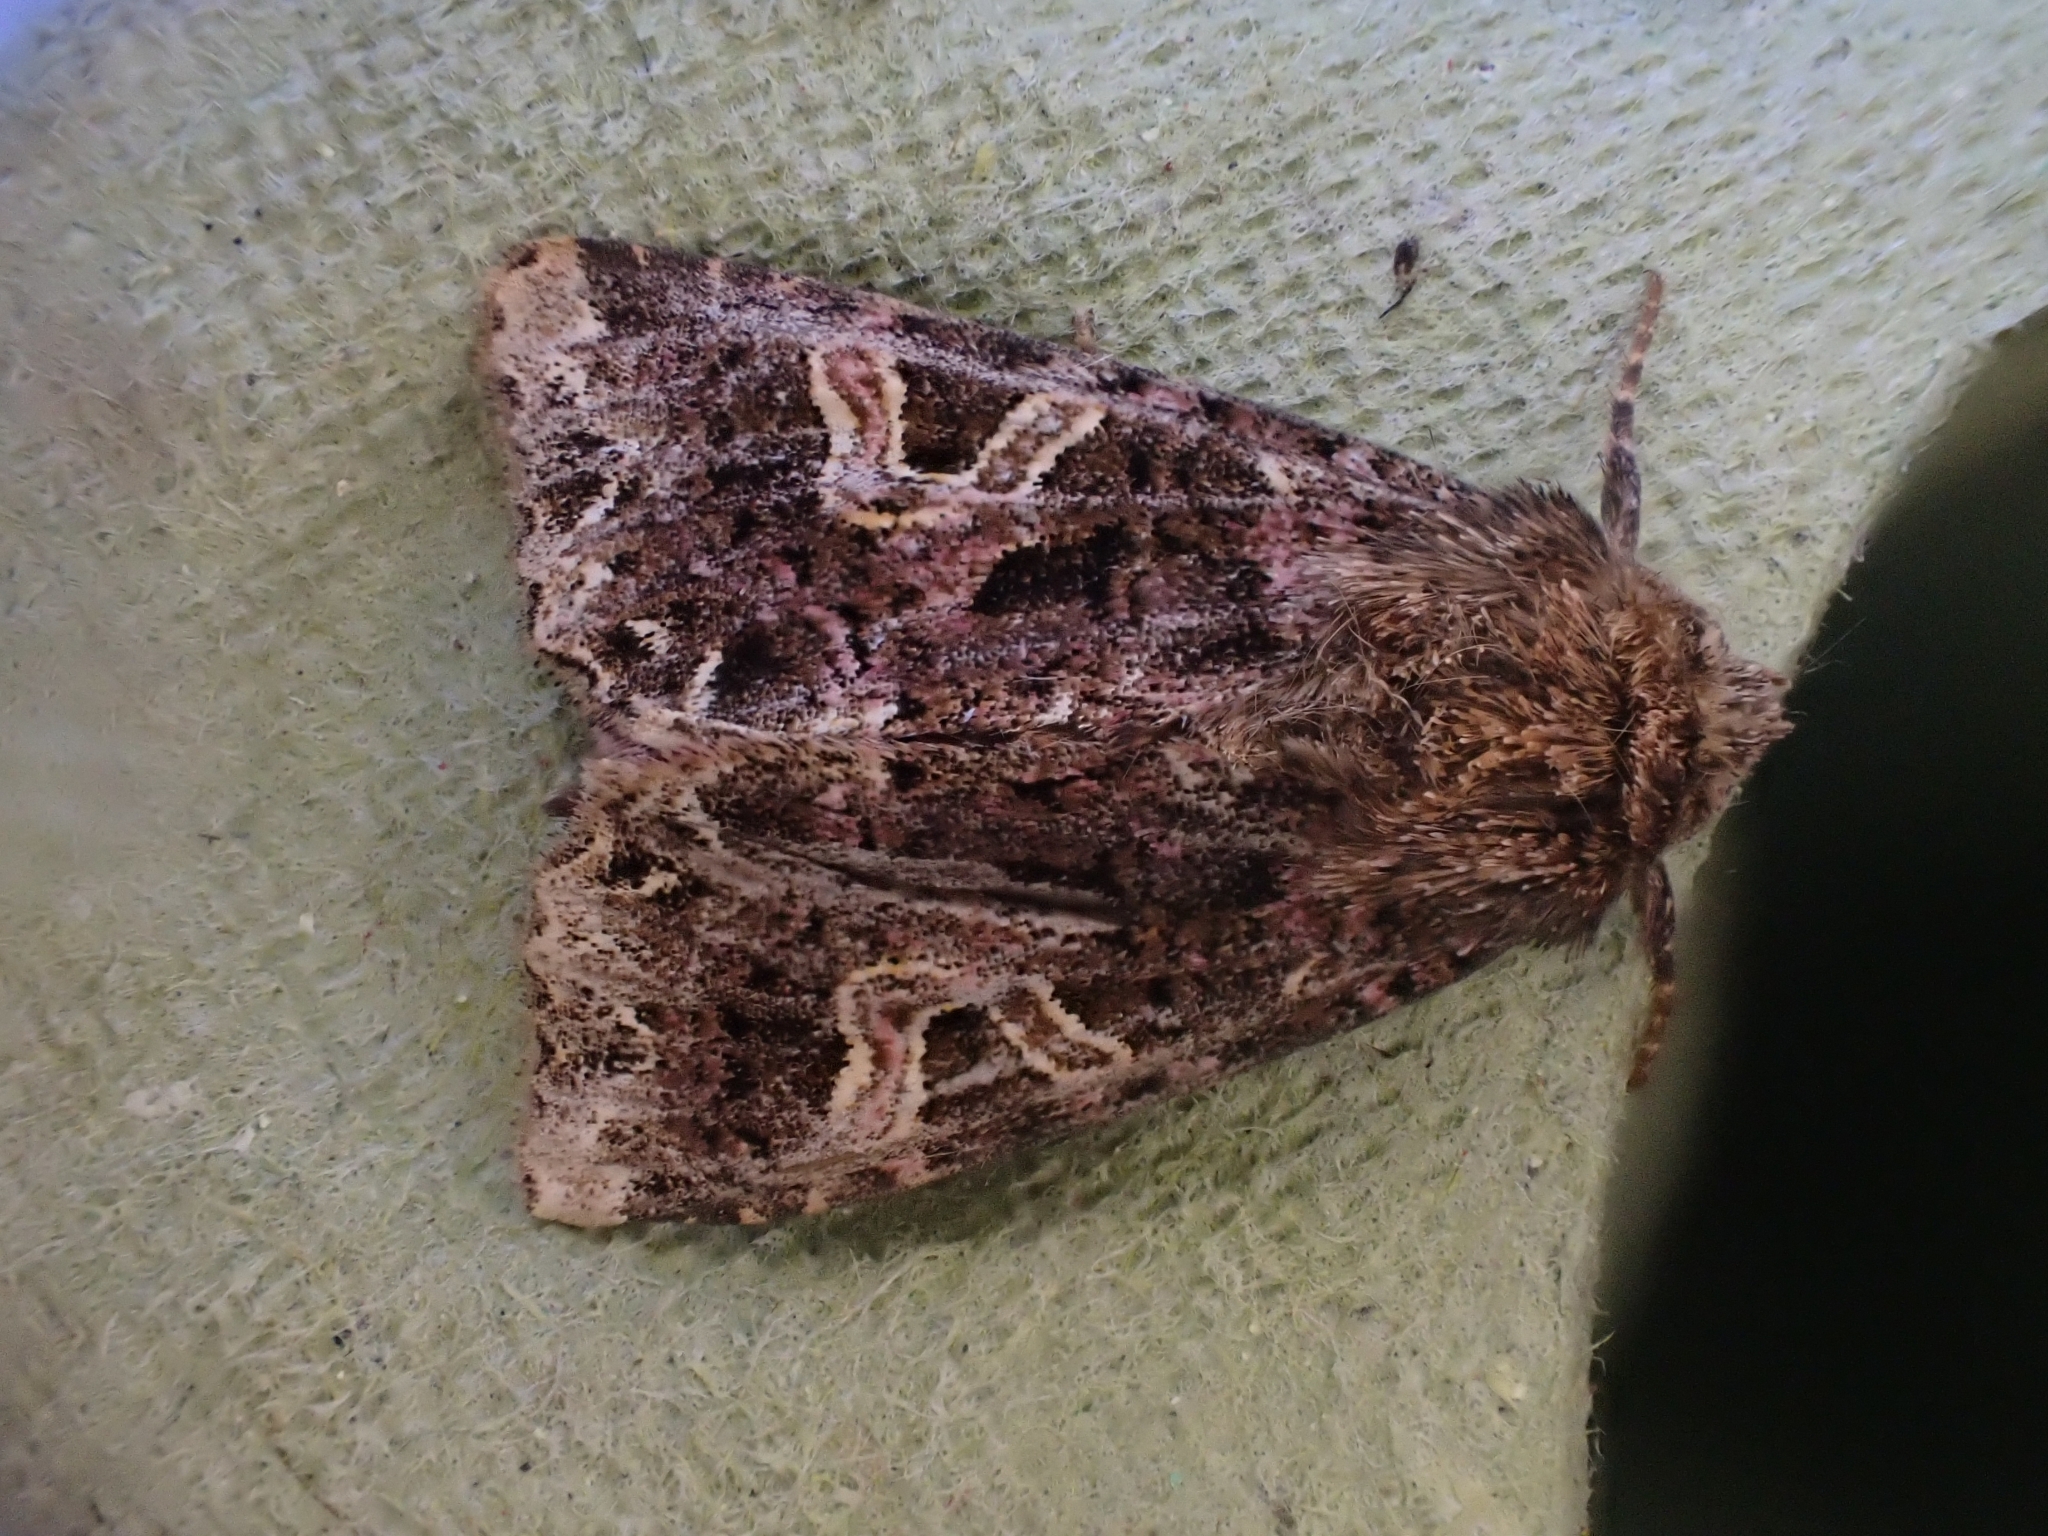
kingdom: Animalia
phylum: Arthropoda
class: Insecta
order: Lepidoptera
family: Noctuidae
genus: Sideridis
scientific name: Sideridis rivularis
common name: Campion
